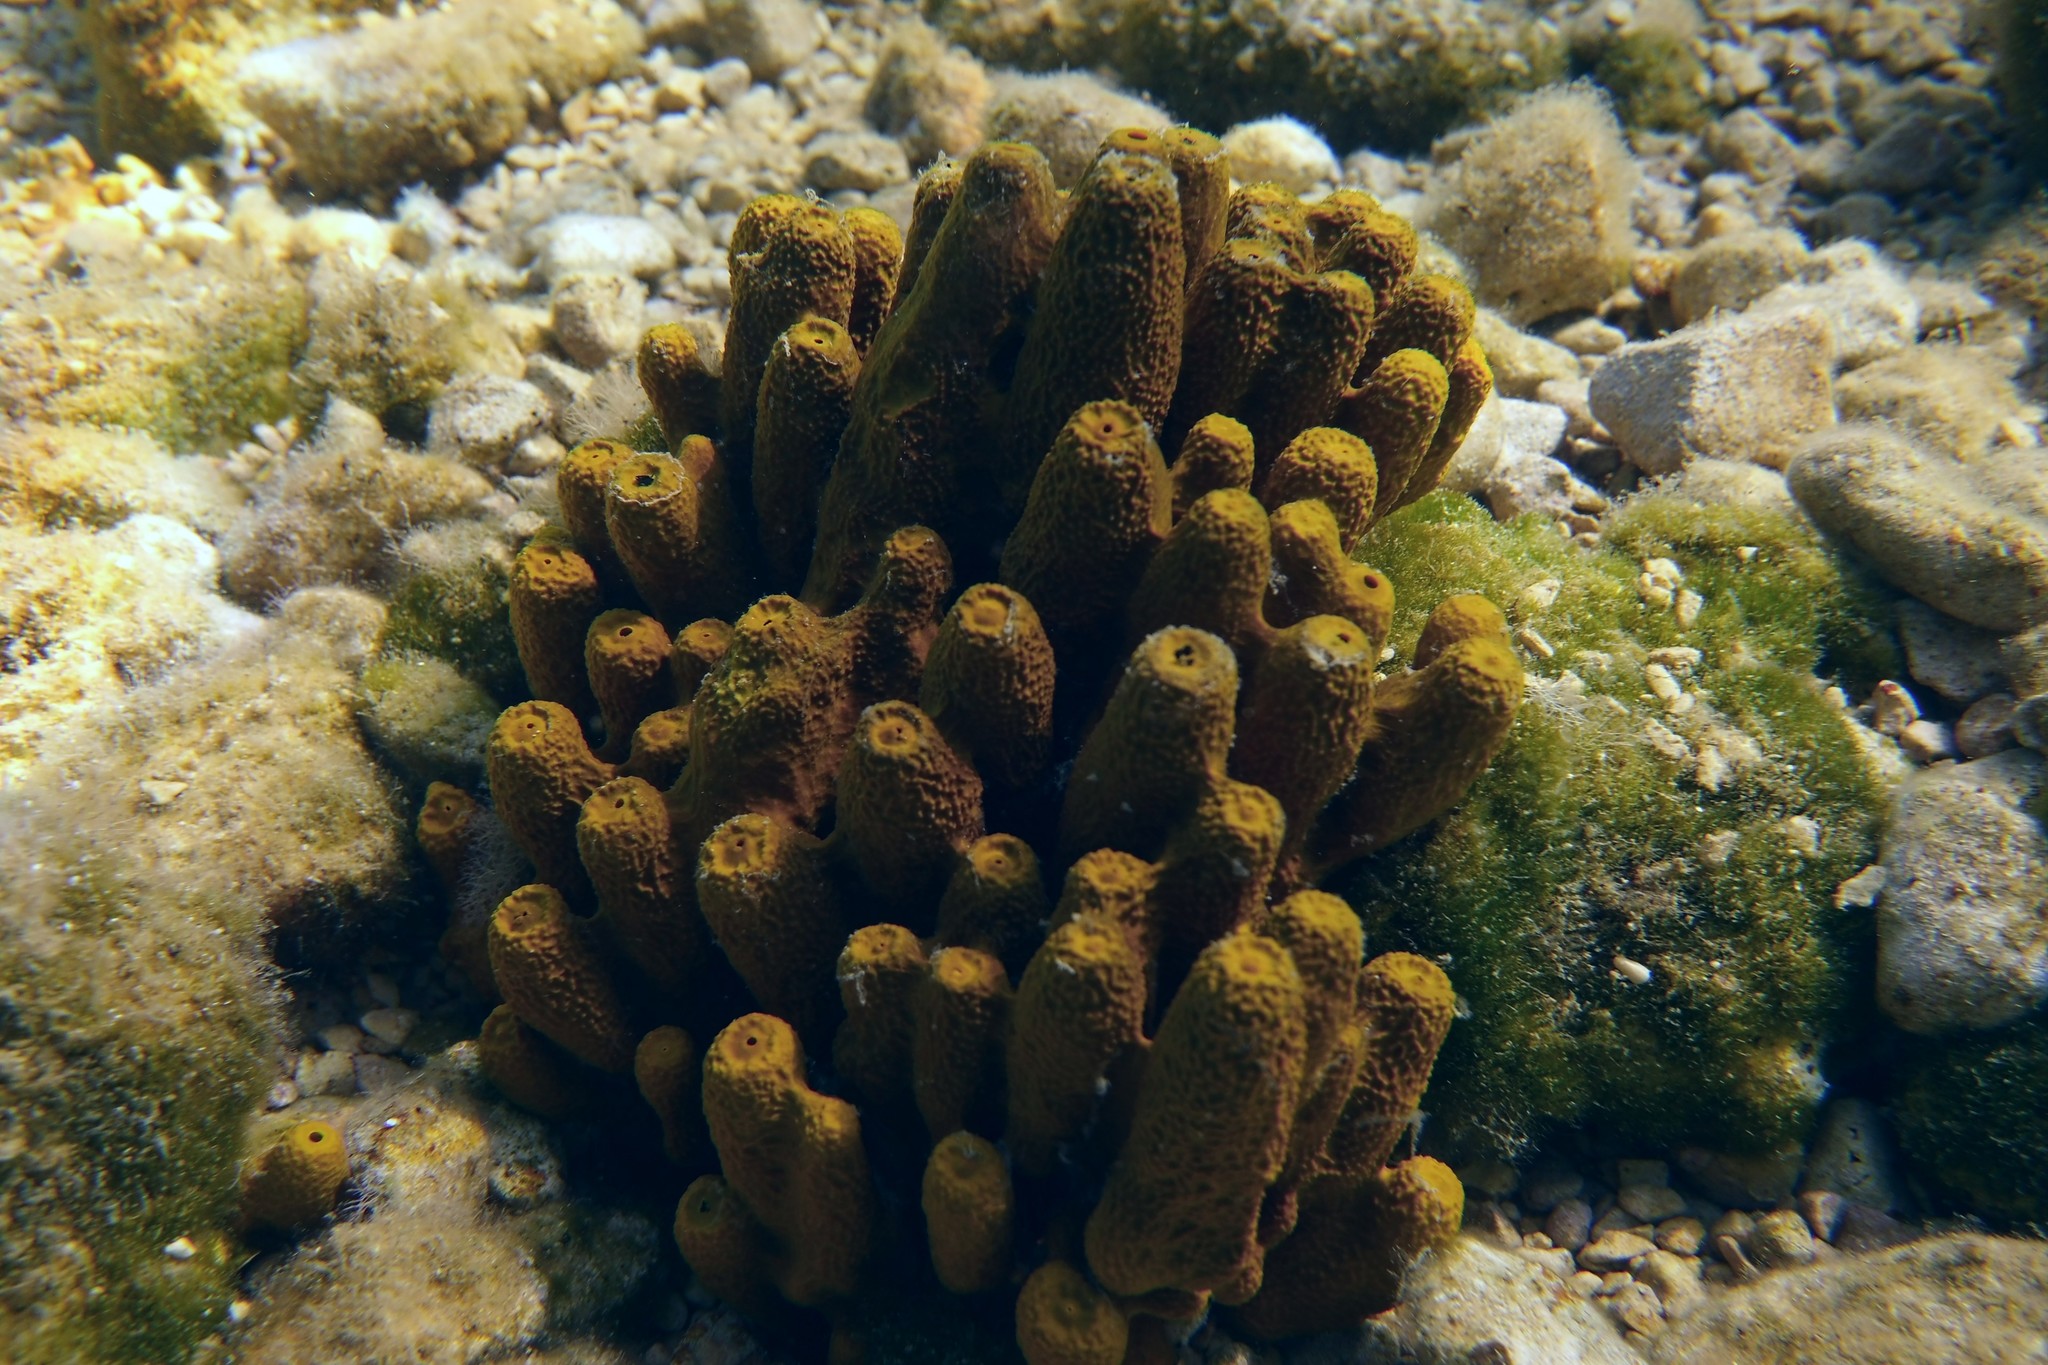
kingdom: Animalia
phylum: Porifera
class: Demospongiae
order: Verongiida
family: Aplysinidae
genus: Aplysina
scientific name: Aplysina aerophoba
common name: Aureate sponge
